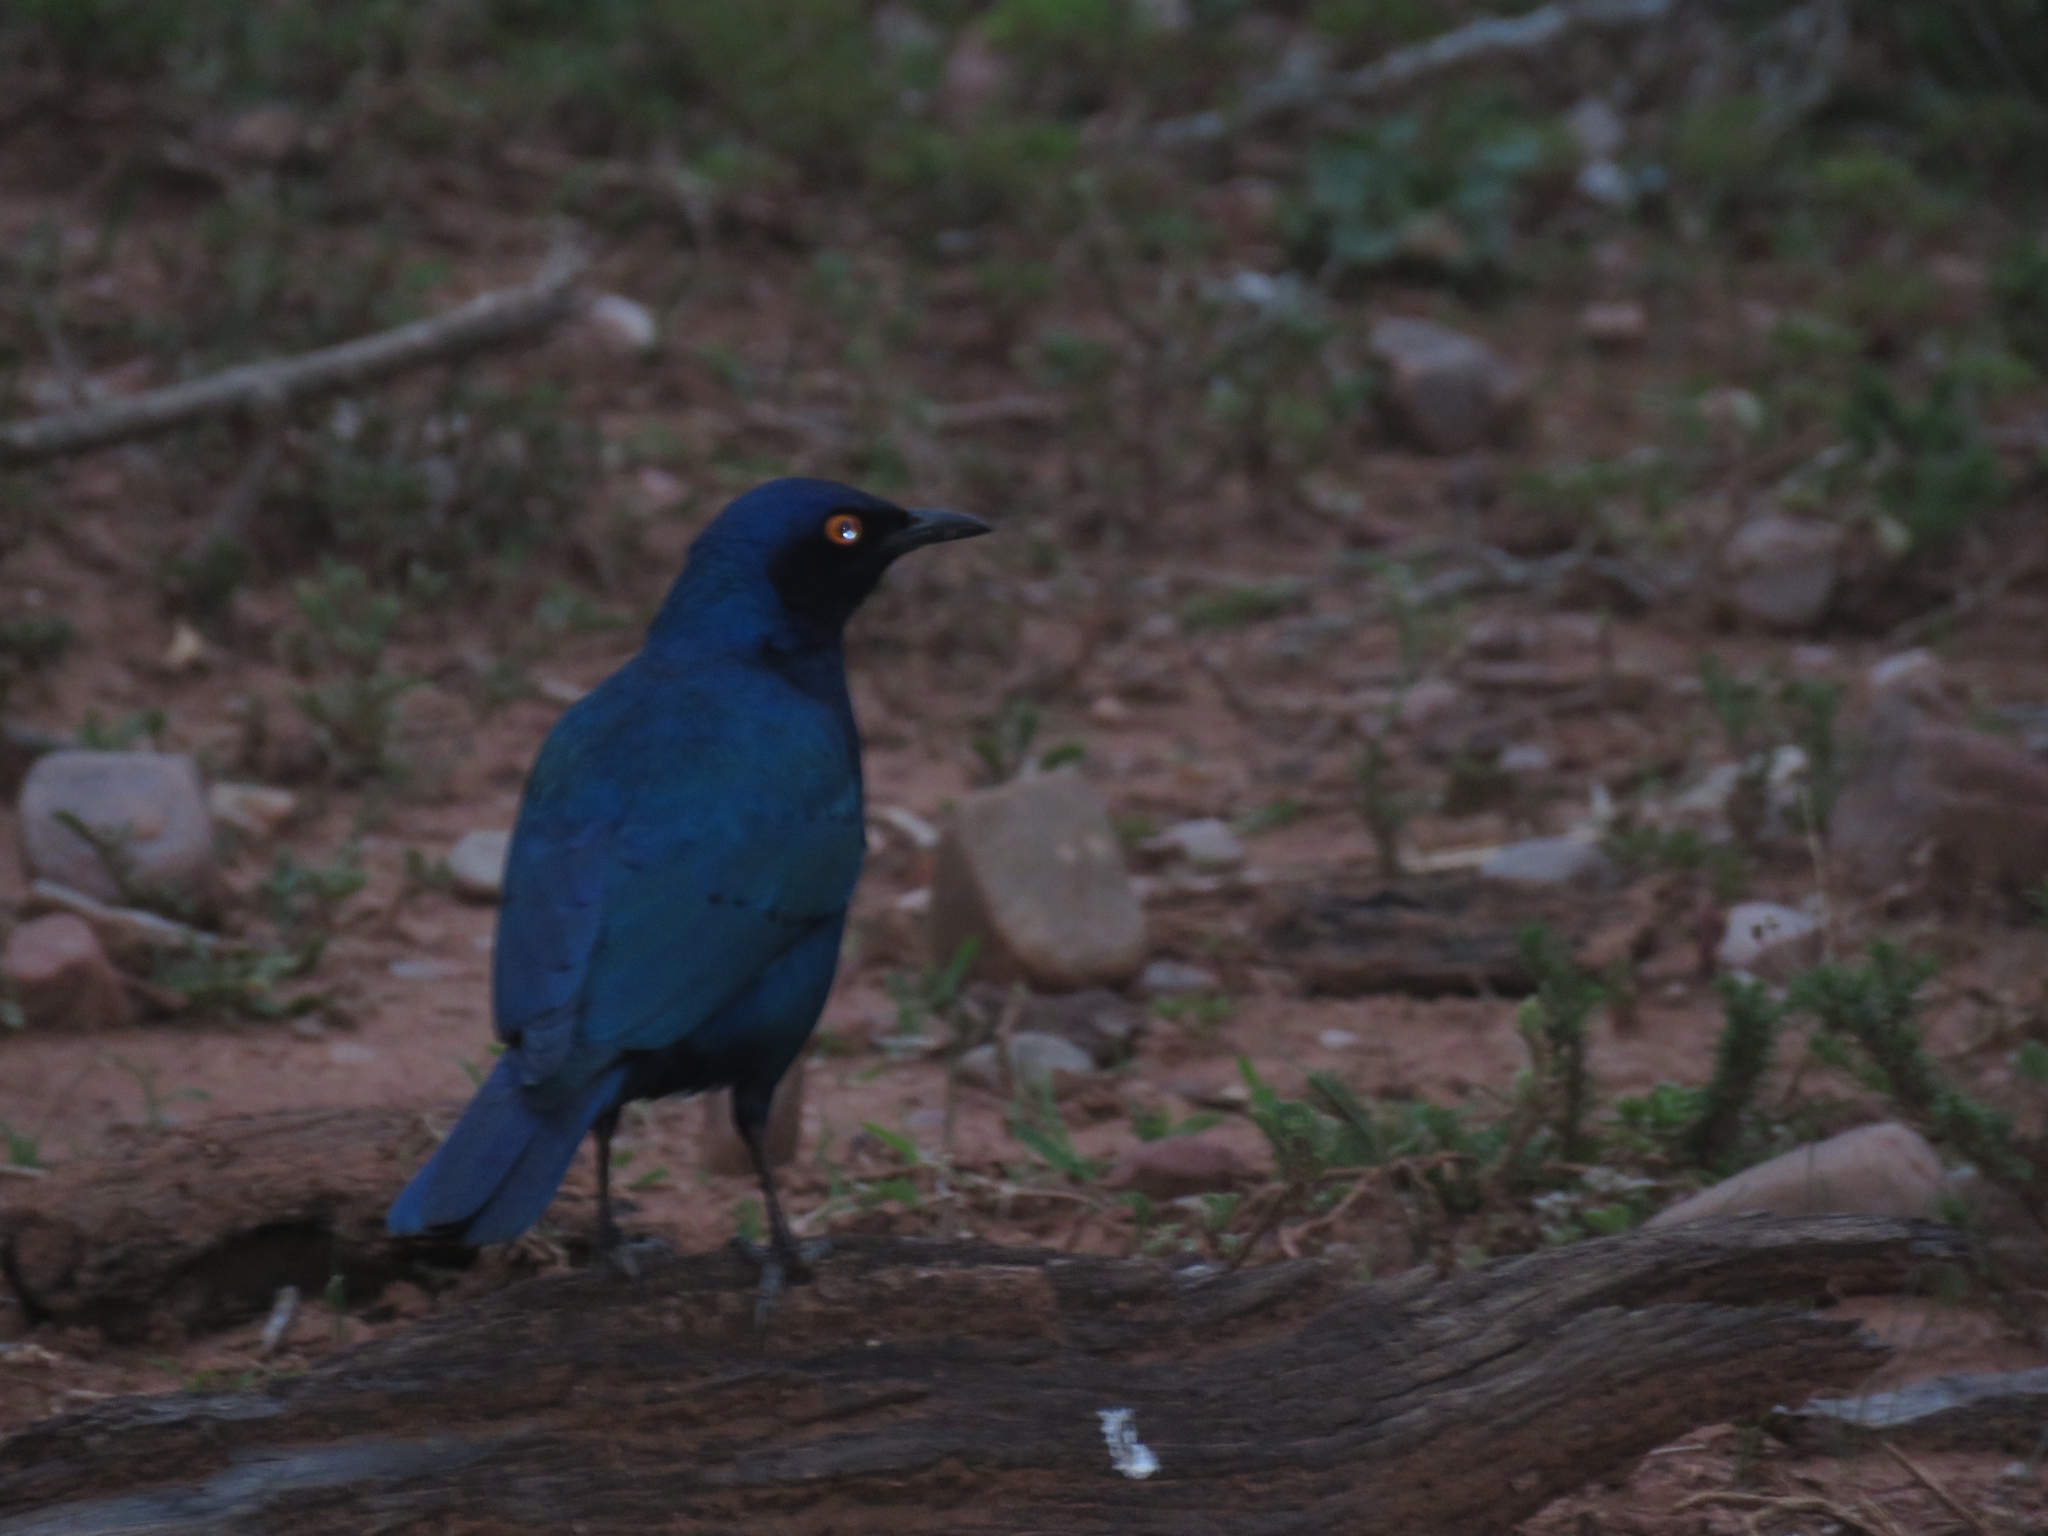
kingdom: Animalia
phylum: Chordata
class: Aves
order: Passeriformes
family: Sturnidae
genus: Lamprotornis
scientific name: Lamprotornis nitens
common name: Cape starling
